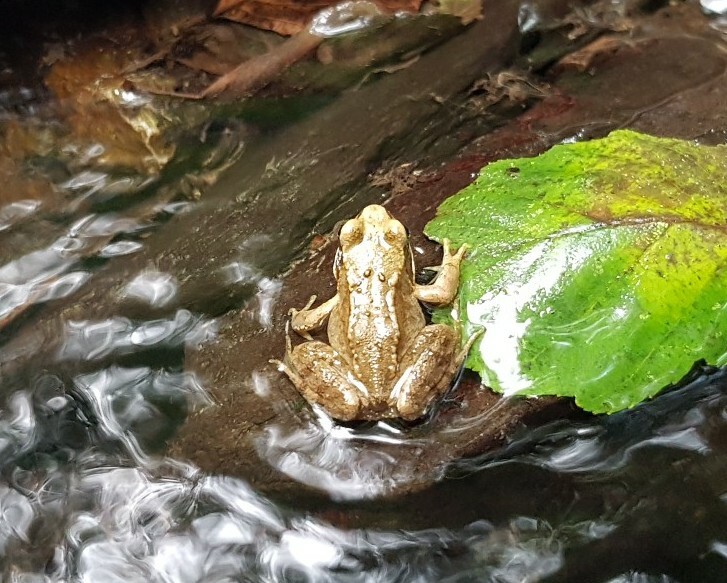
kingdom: Animalia
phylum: Chordata
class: Amphibia
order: Anura
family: Ranidae
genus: Rana
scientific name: Rana temporaria
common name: Common frog
